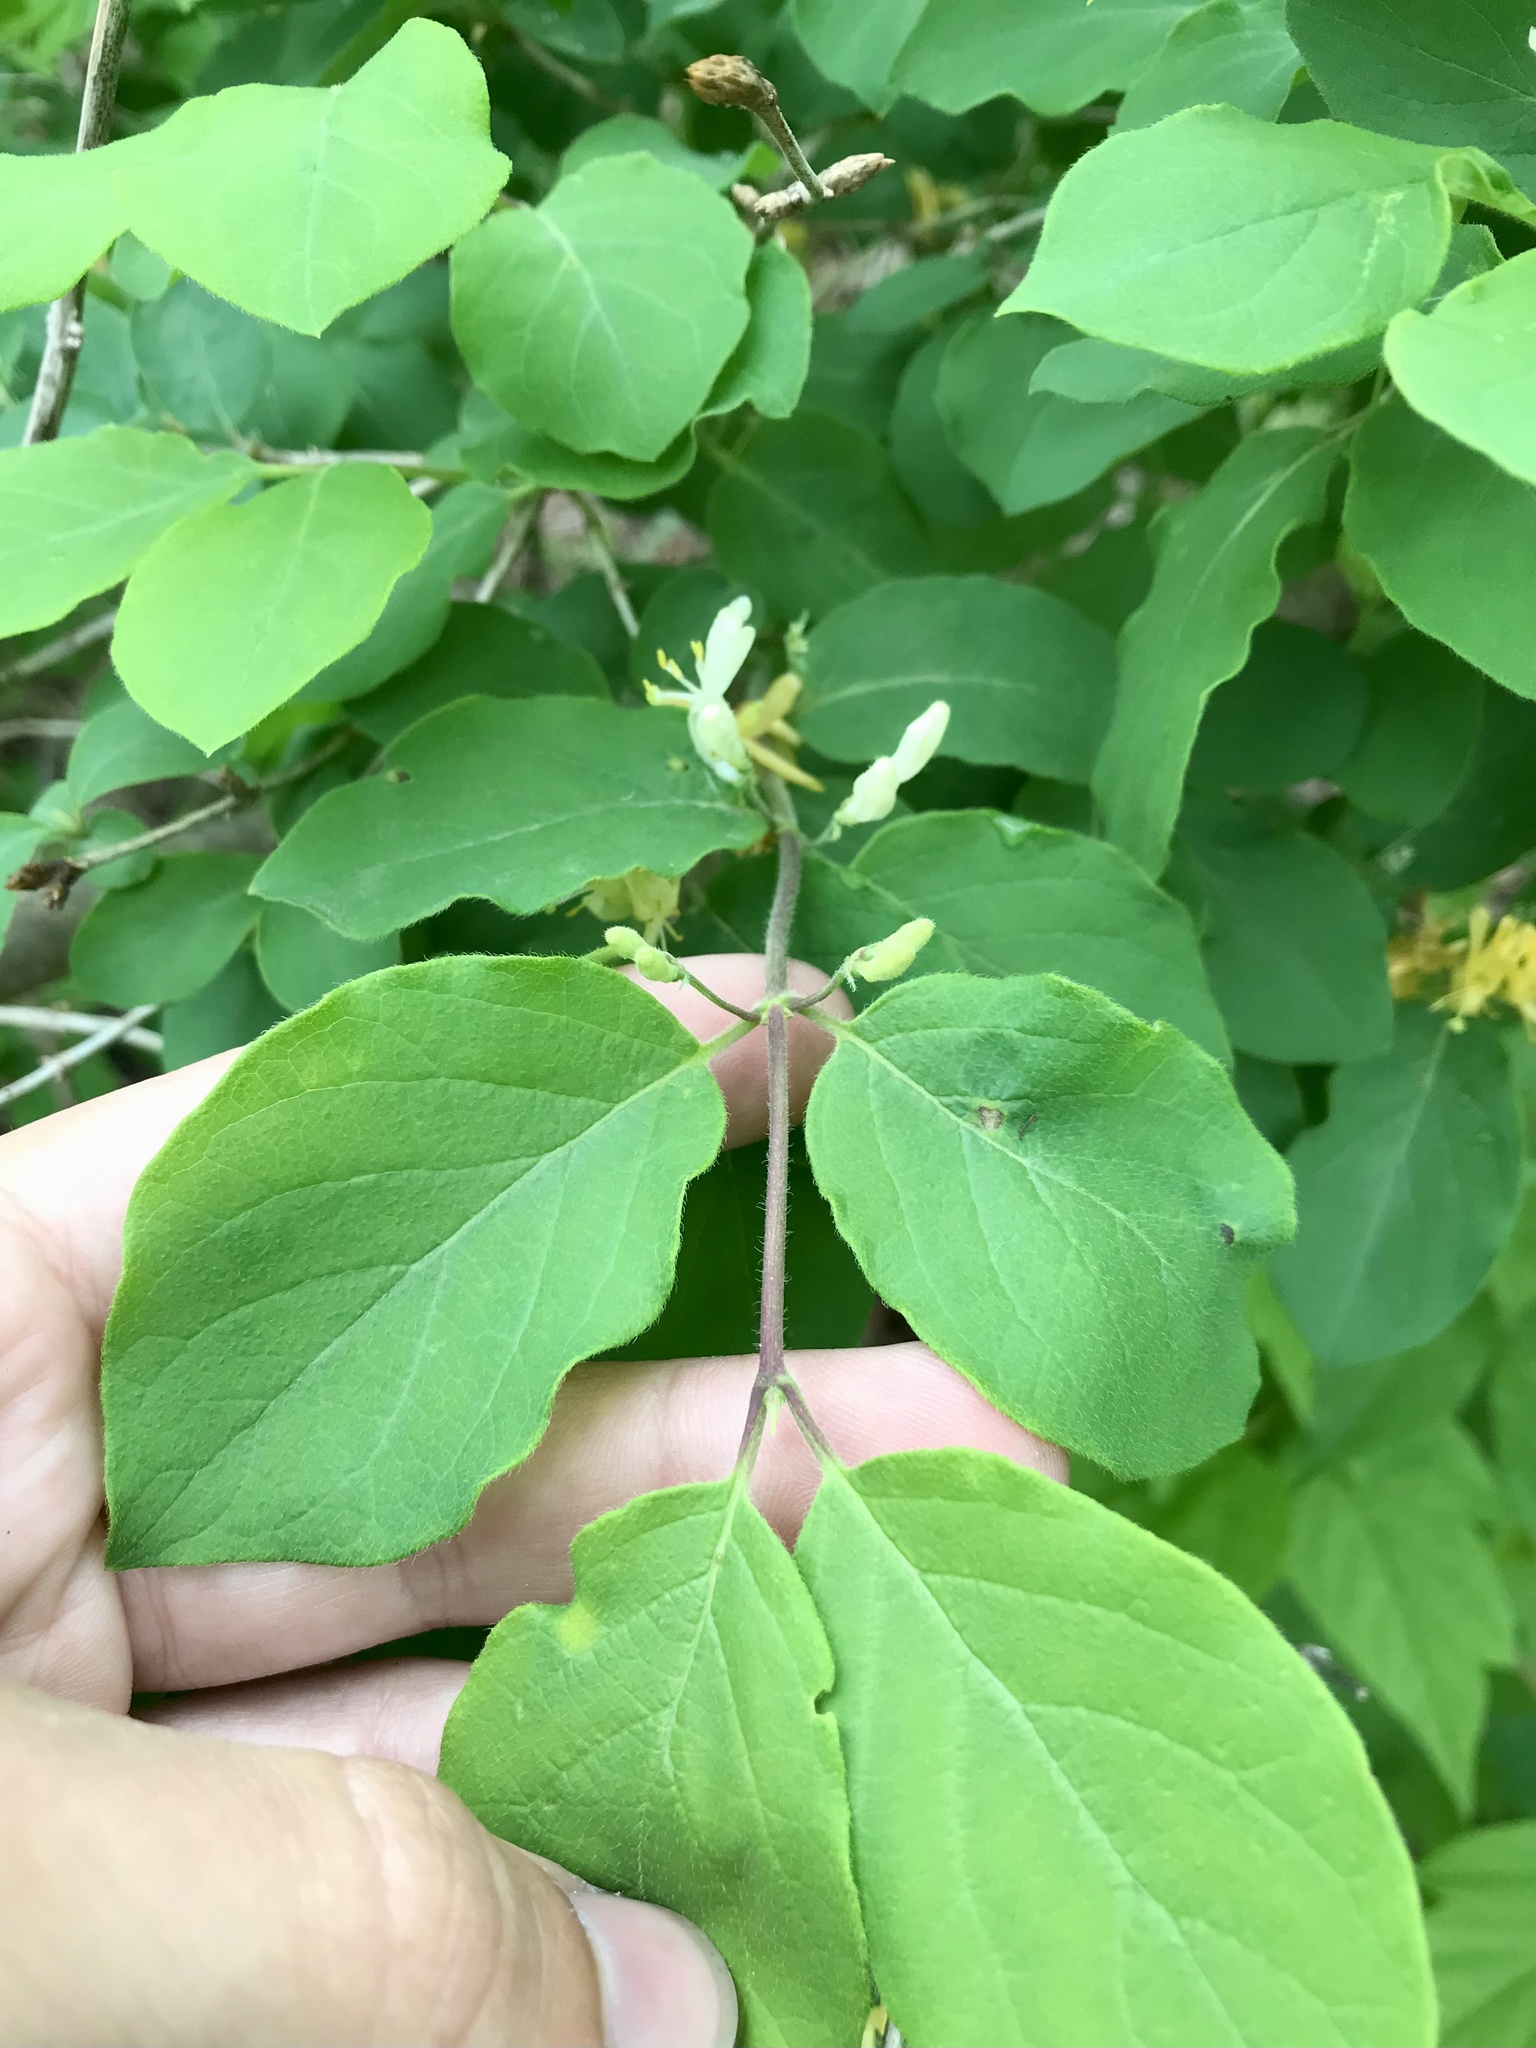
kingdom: Plantae
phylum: Tracheophyta
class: Magnoliopsida
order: Dipsacales
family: Caprifoliaceae
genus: Lonicera
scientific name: Lonicera morrowii
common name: Morrow's honeysuckle
